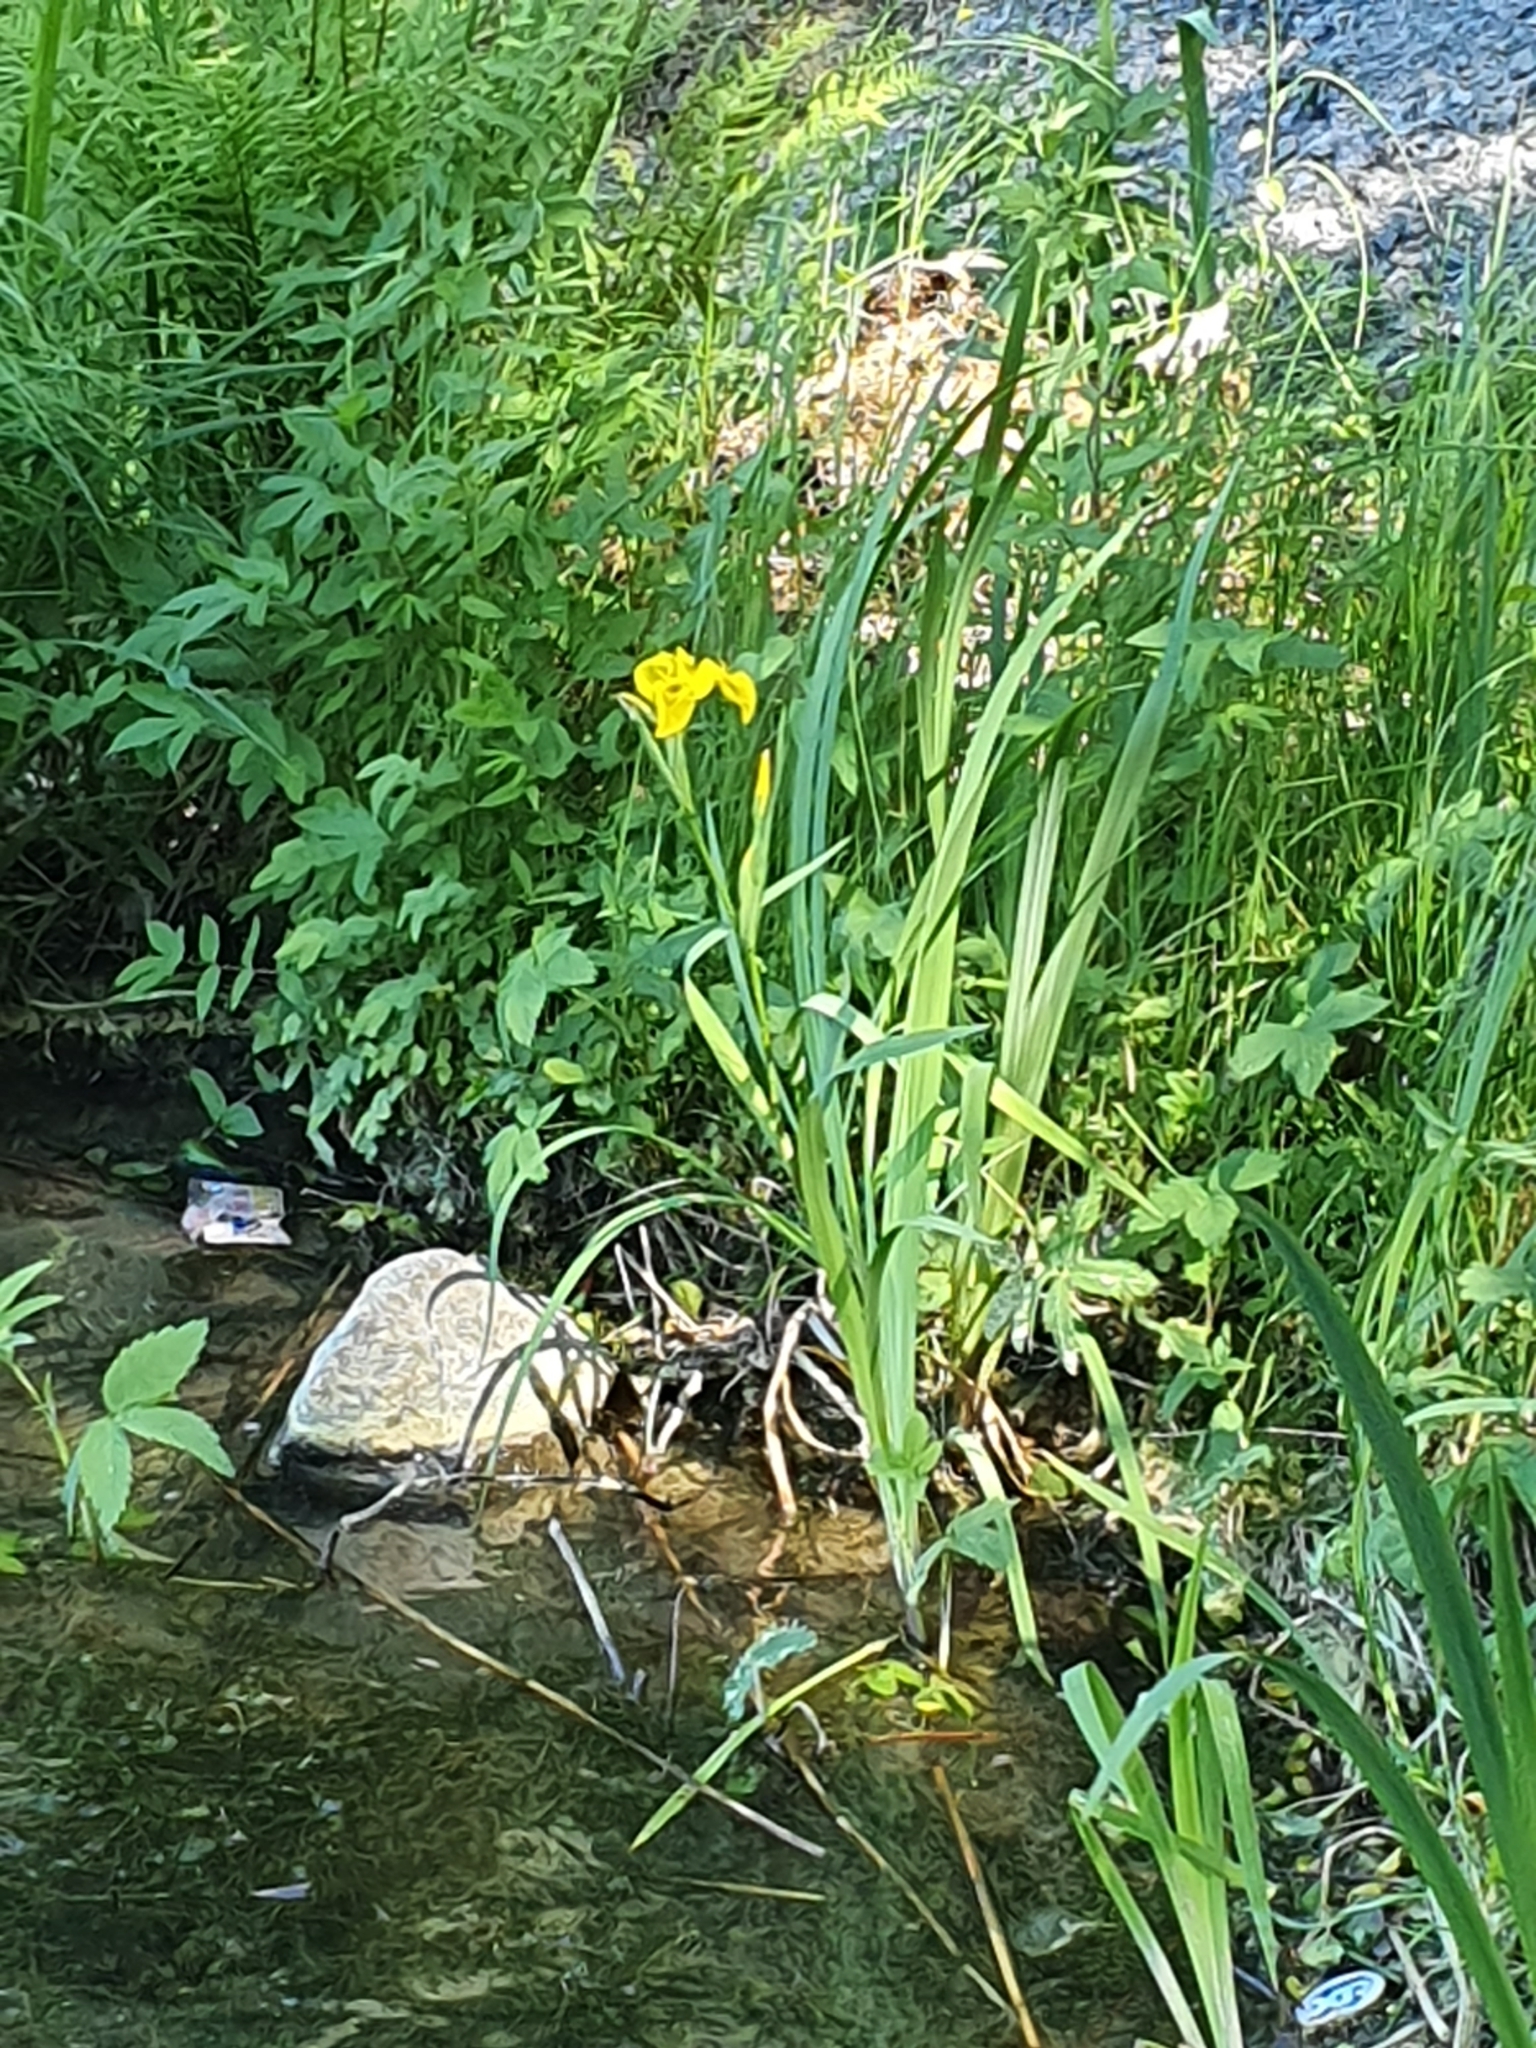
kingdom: Plantae
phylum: Tracheophyta
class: Liliopsida
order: Asparagales
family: Iridaceae
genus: Iris
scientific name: Iris pseudacorus
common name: Yellow flag
